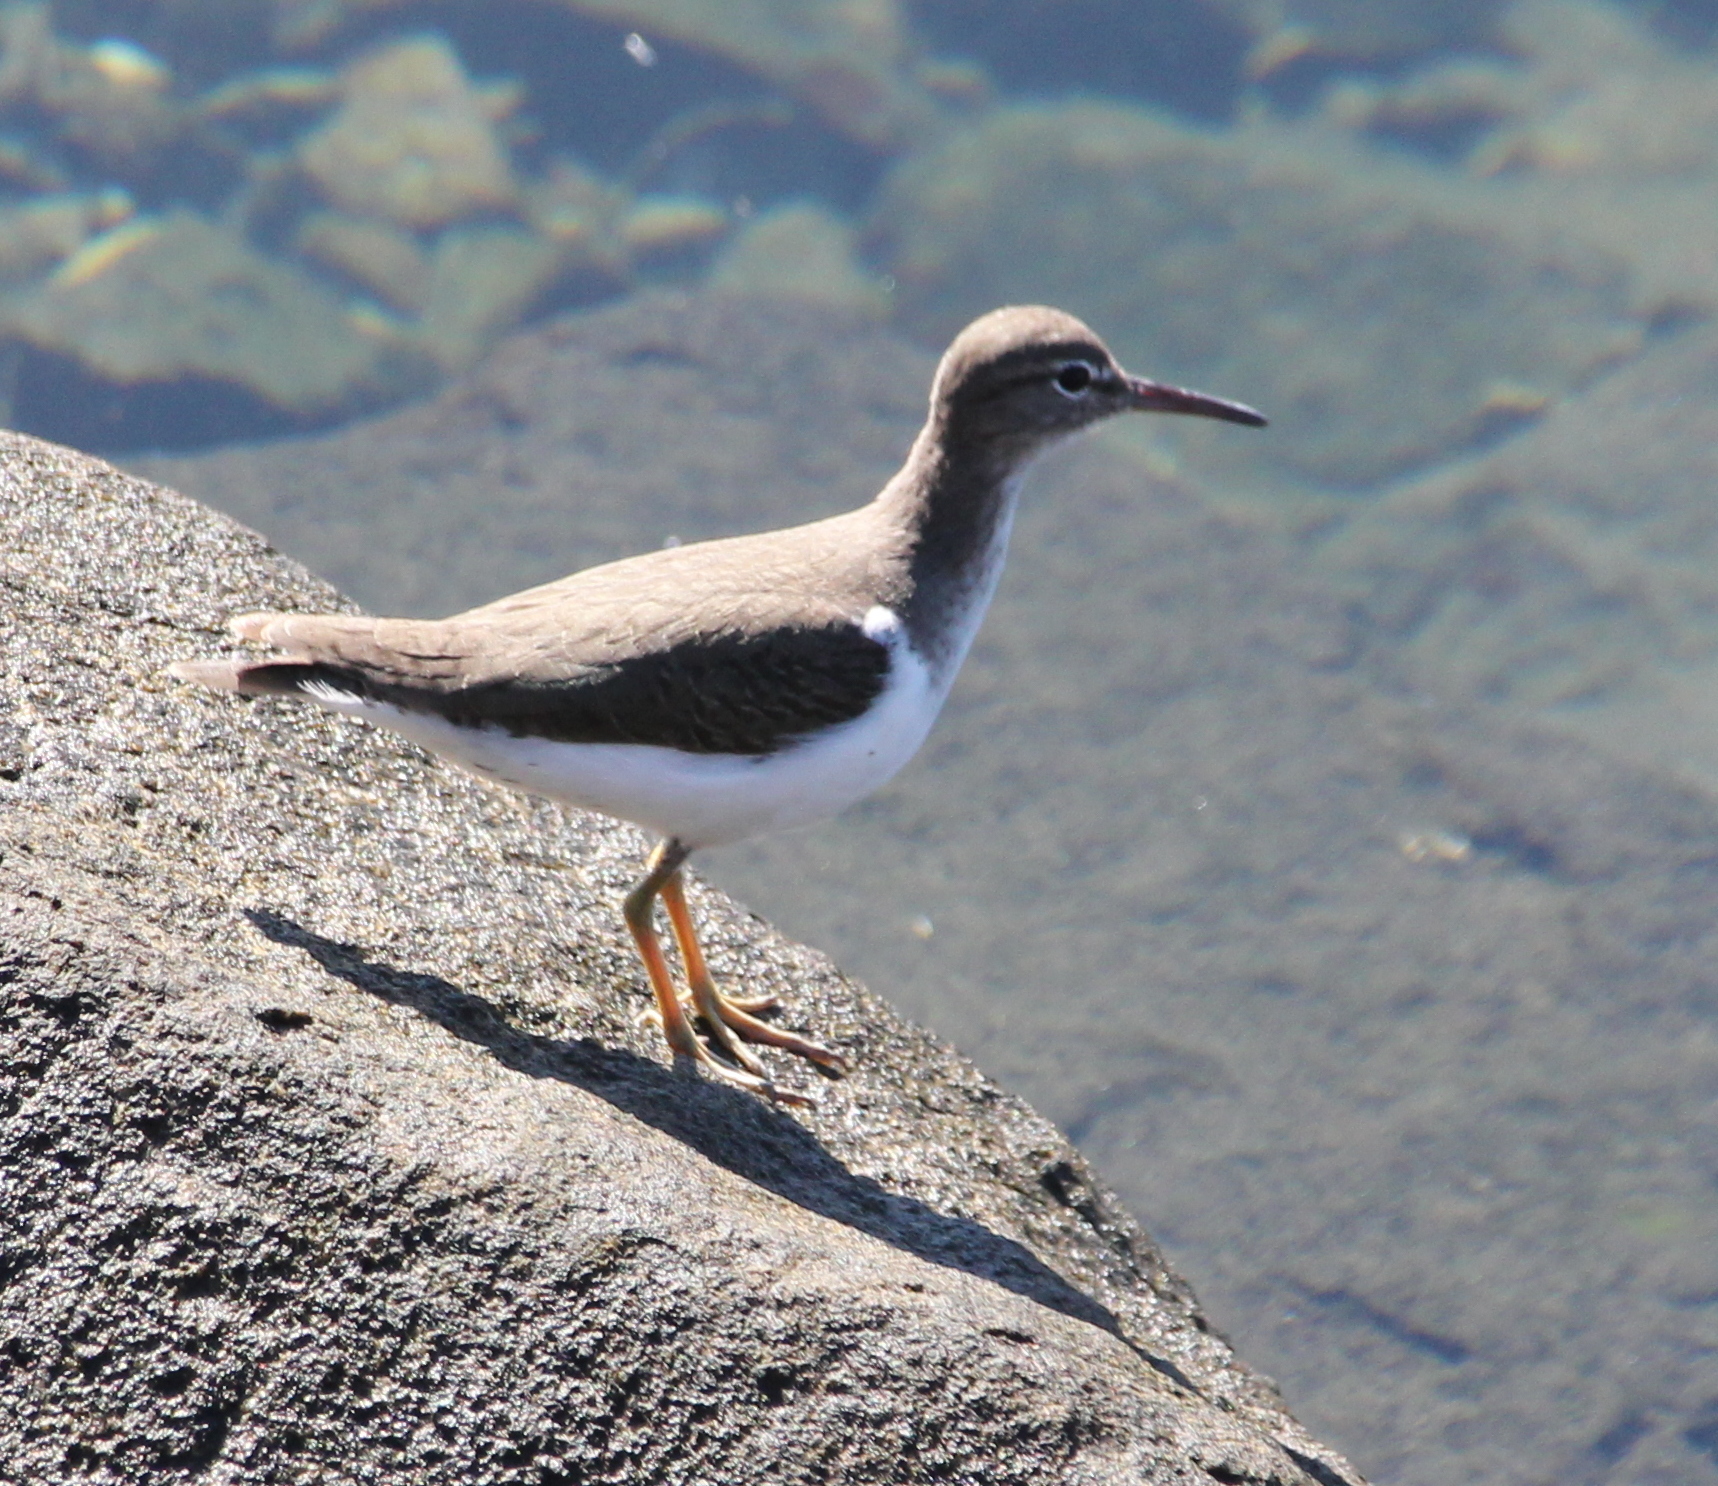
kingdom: Animalia
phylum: Chordata
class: Aves
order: Charadriiformes
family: Scolopacidae
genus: Actitis
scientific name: Actitis macularius
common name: Spotted sandpiper
